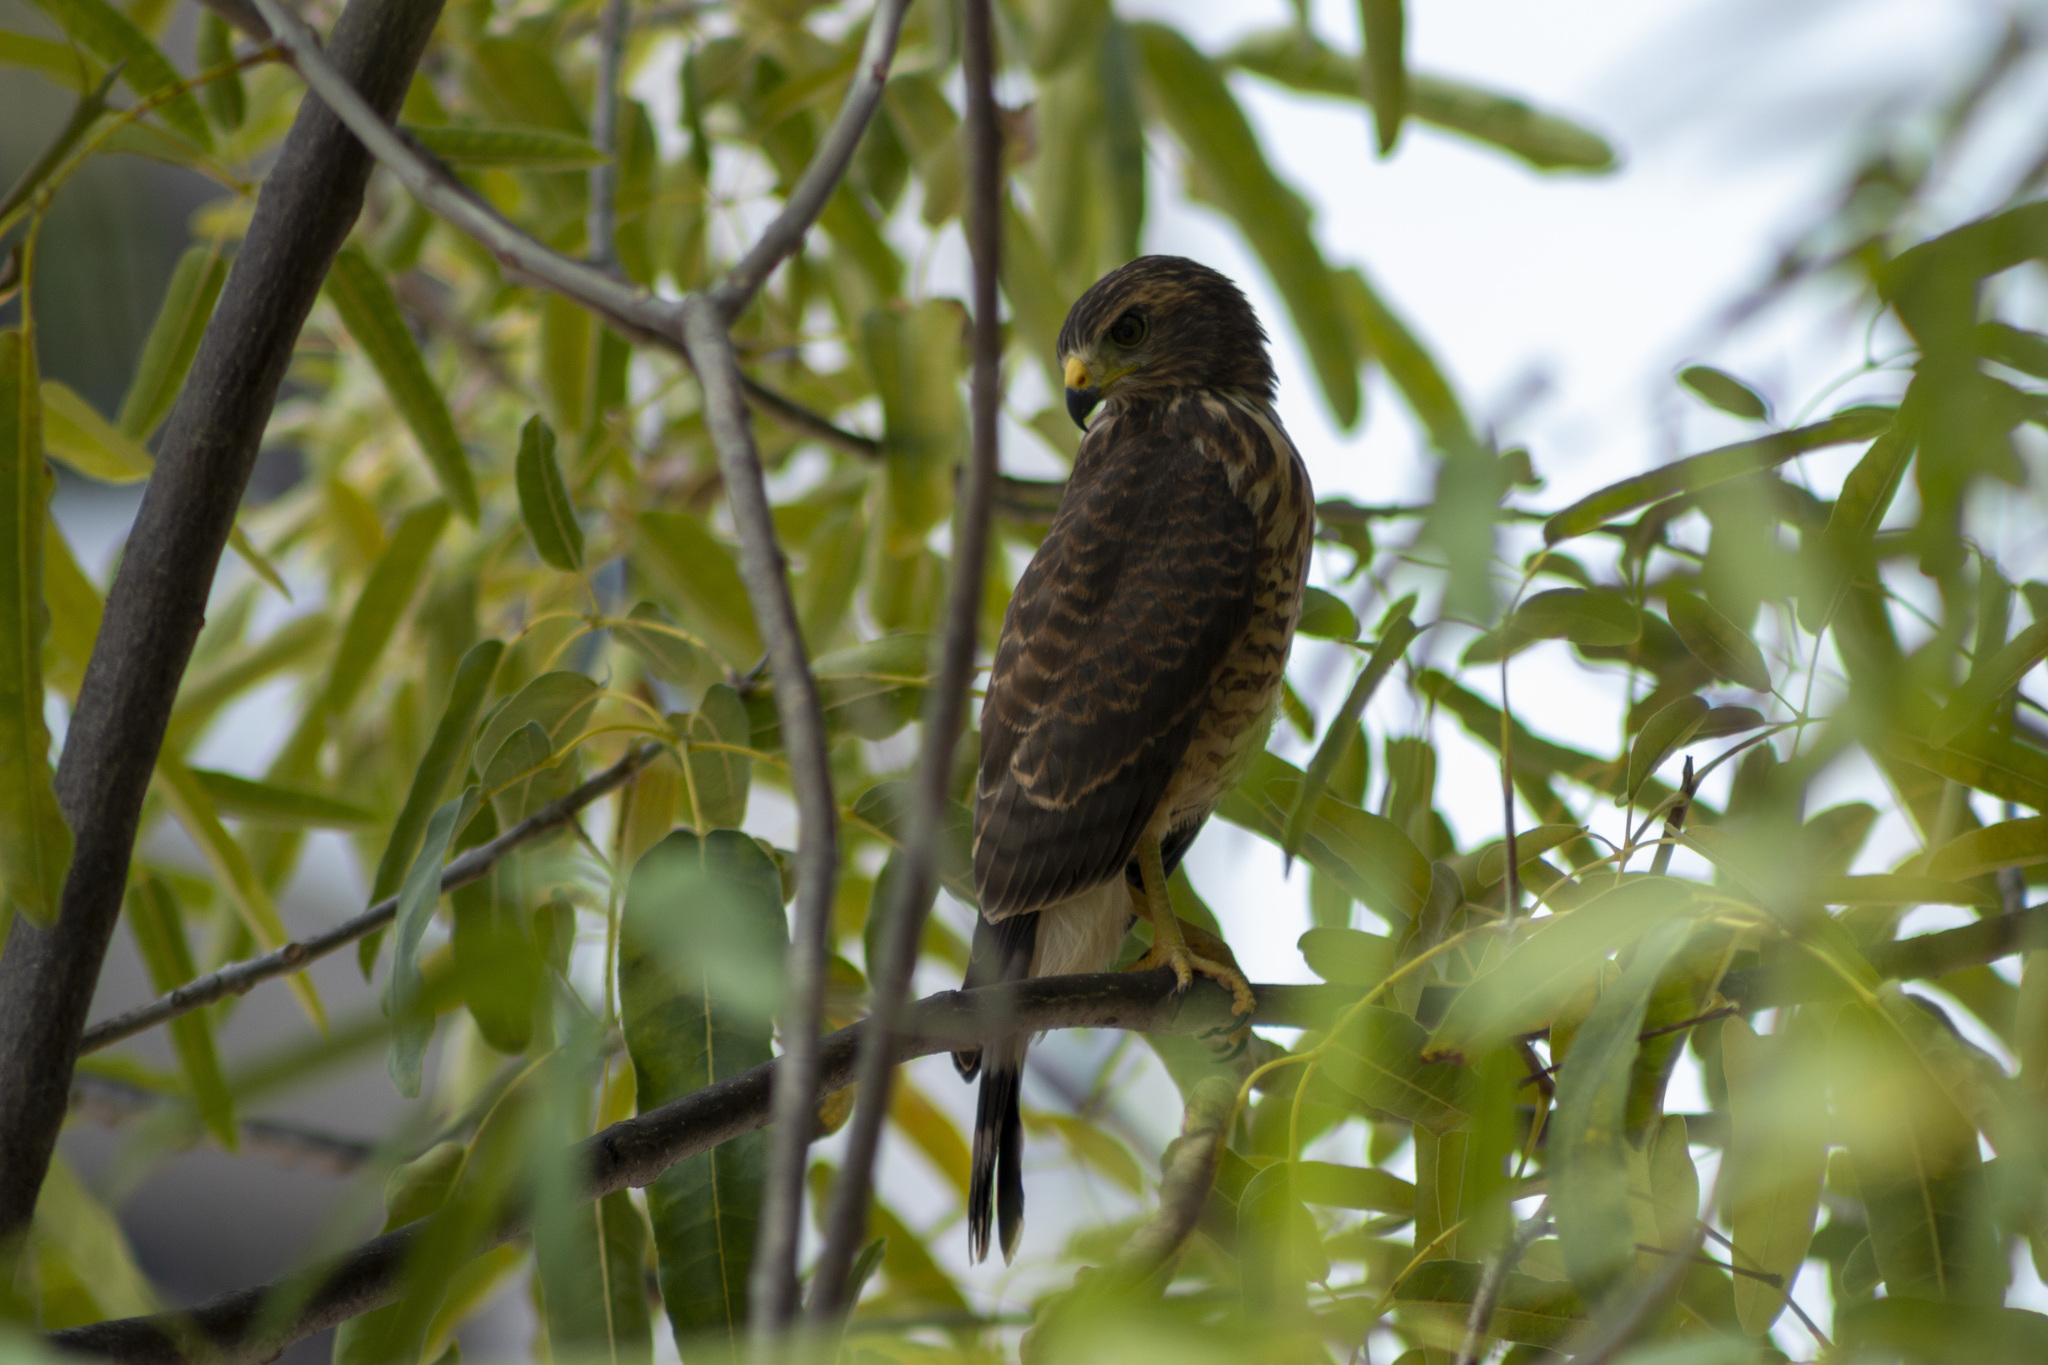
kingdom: Animalia
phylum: Chordata
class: Aves
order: Accipitriformes
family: Accipitridae
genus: Rupornis
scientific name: Rupornis magnirostris
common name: Roadside hawk
